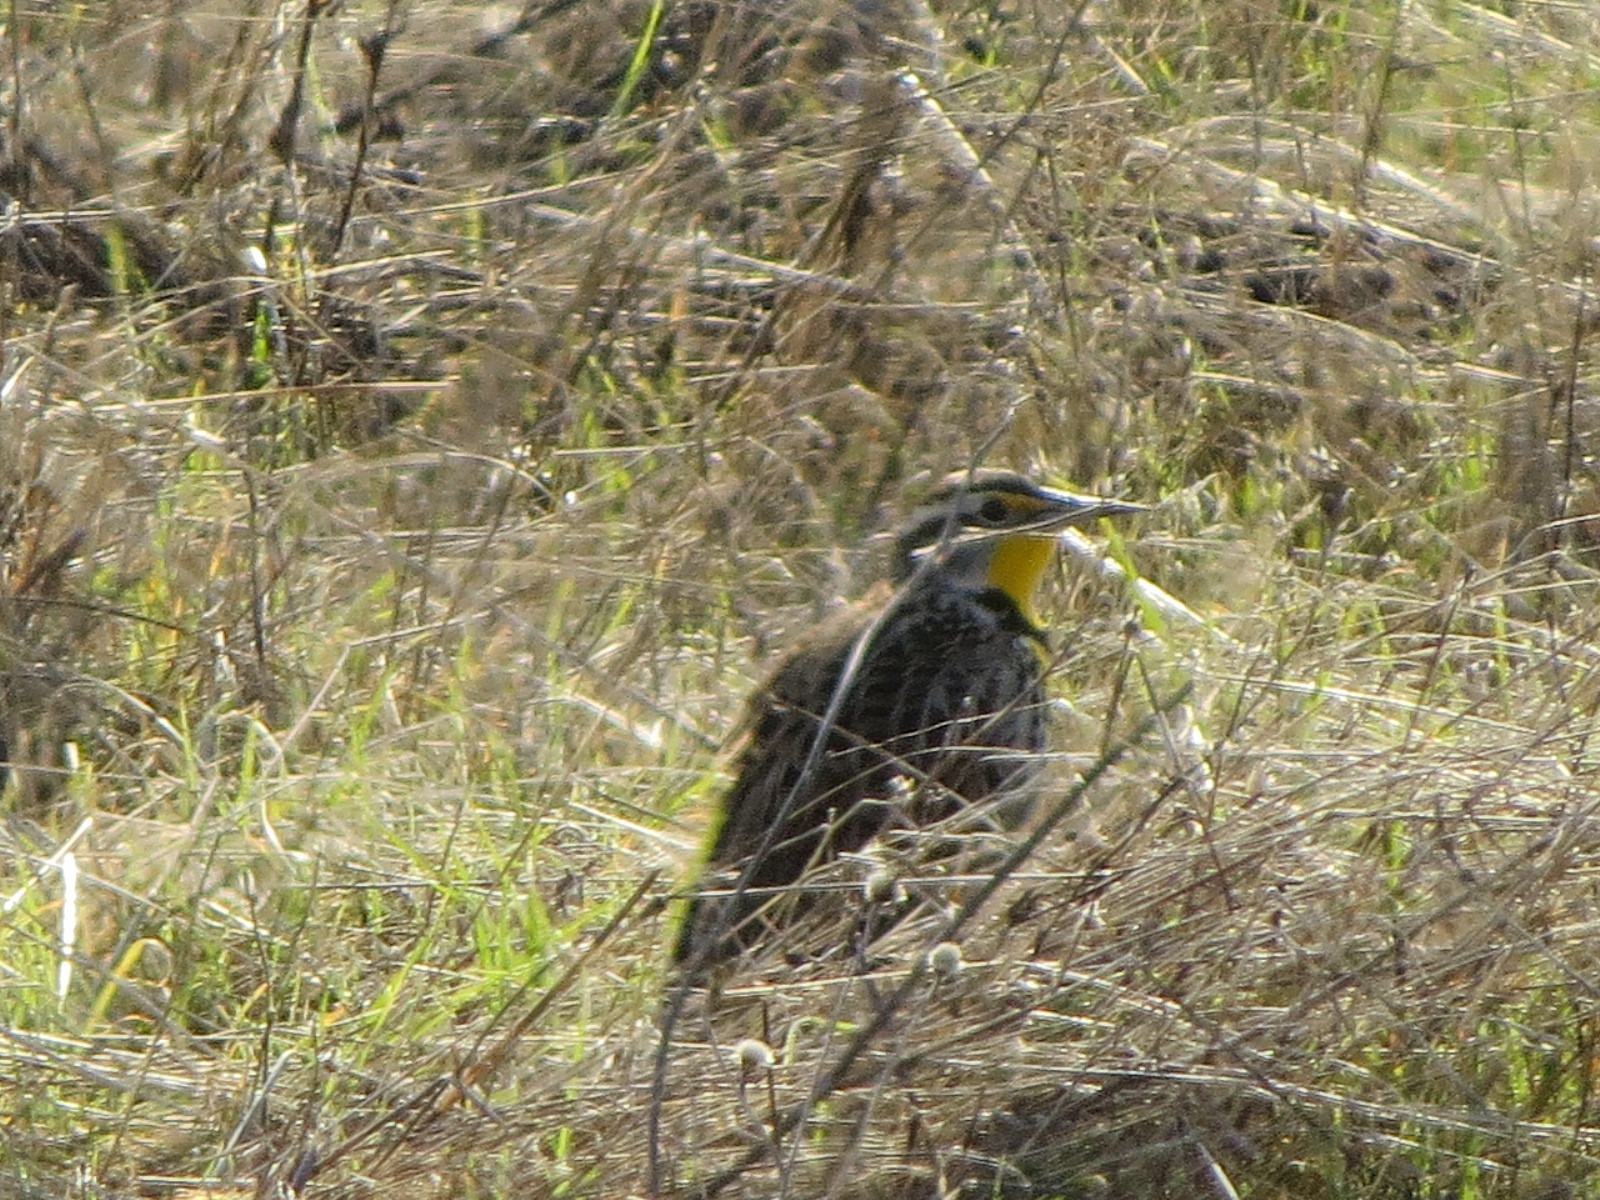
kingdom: Animalia
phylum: Chordata
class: Aves
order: Passeriformes
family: Icteridae
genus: Sturnella
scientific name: Sturnella neglecta
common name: Western meadowlark
